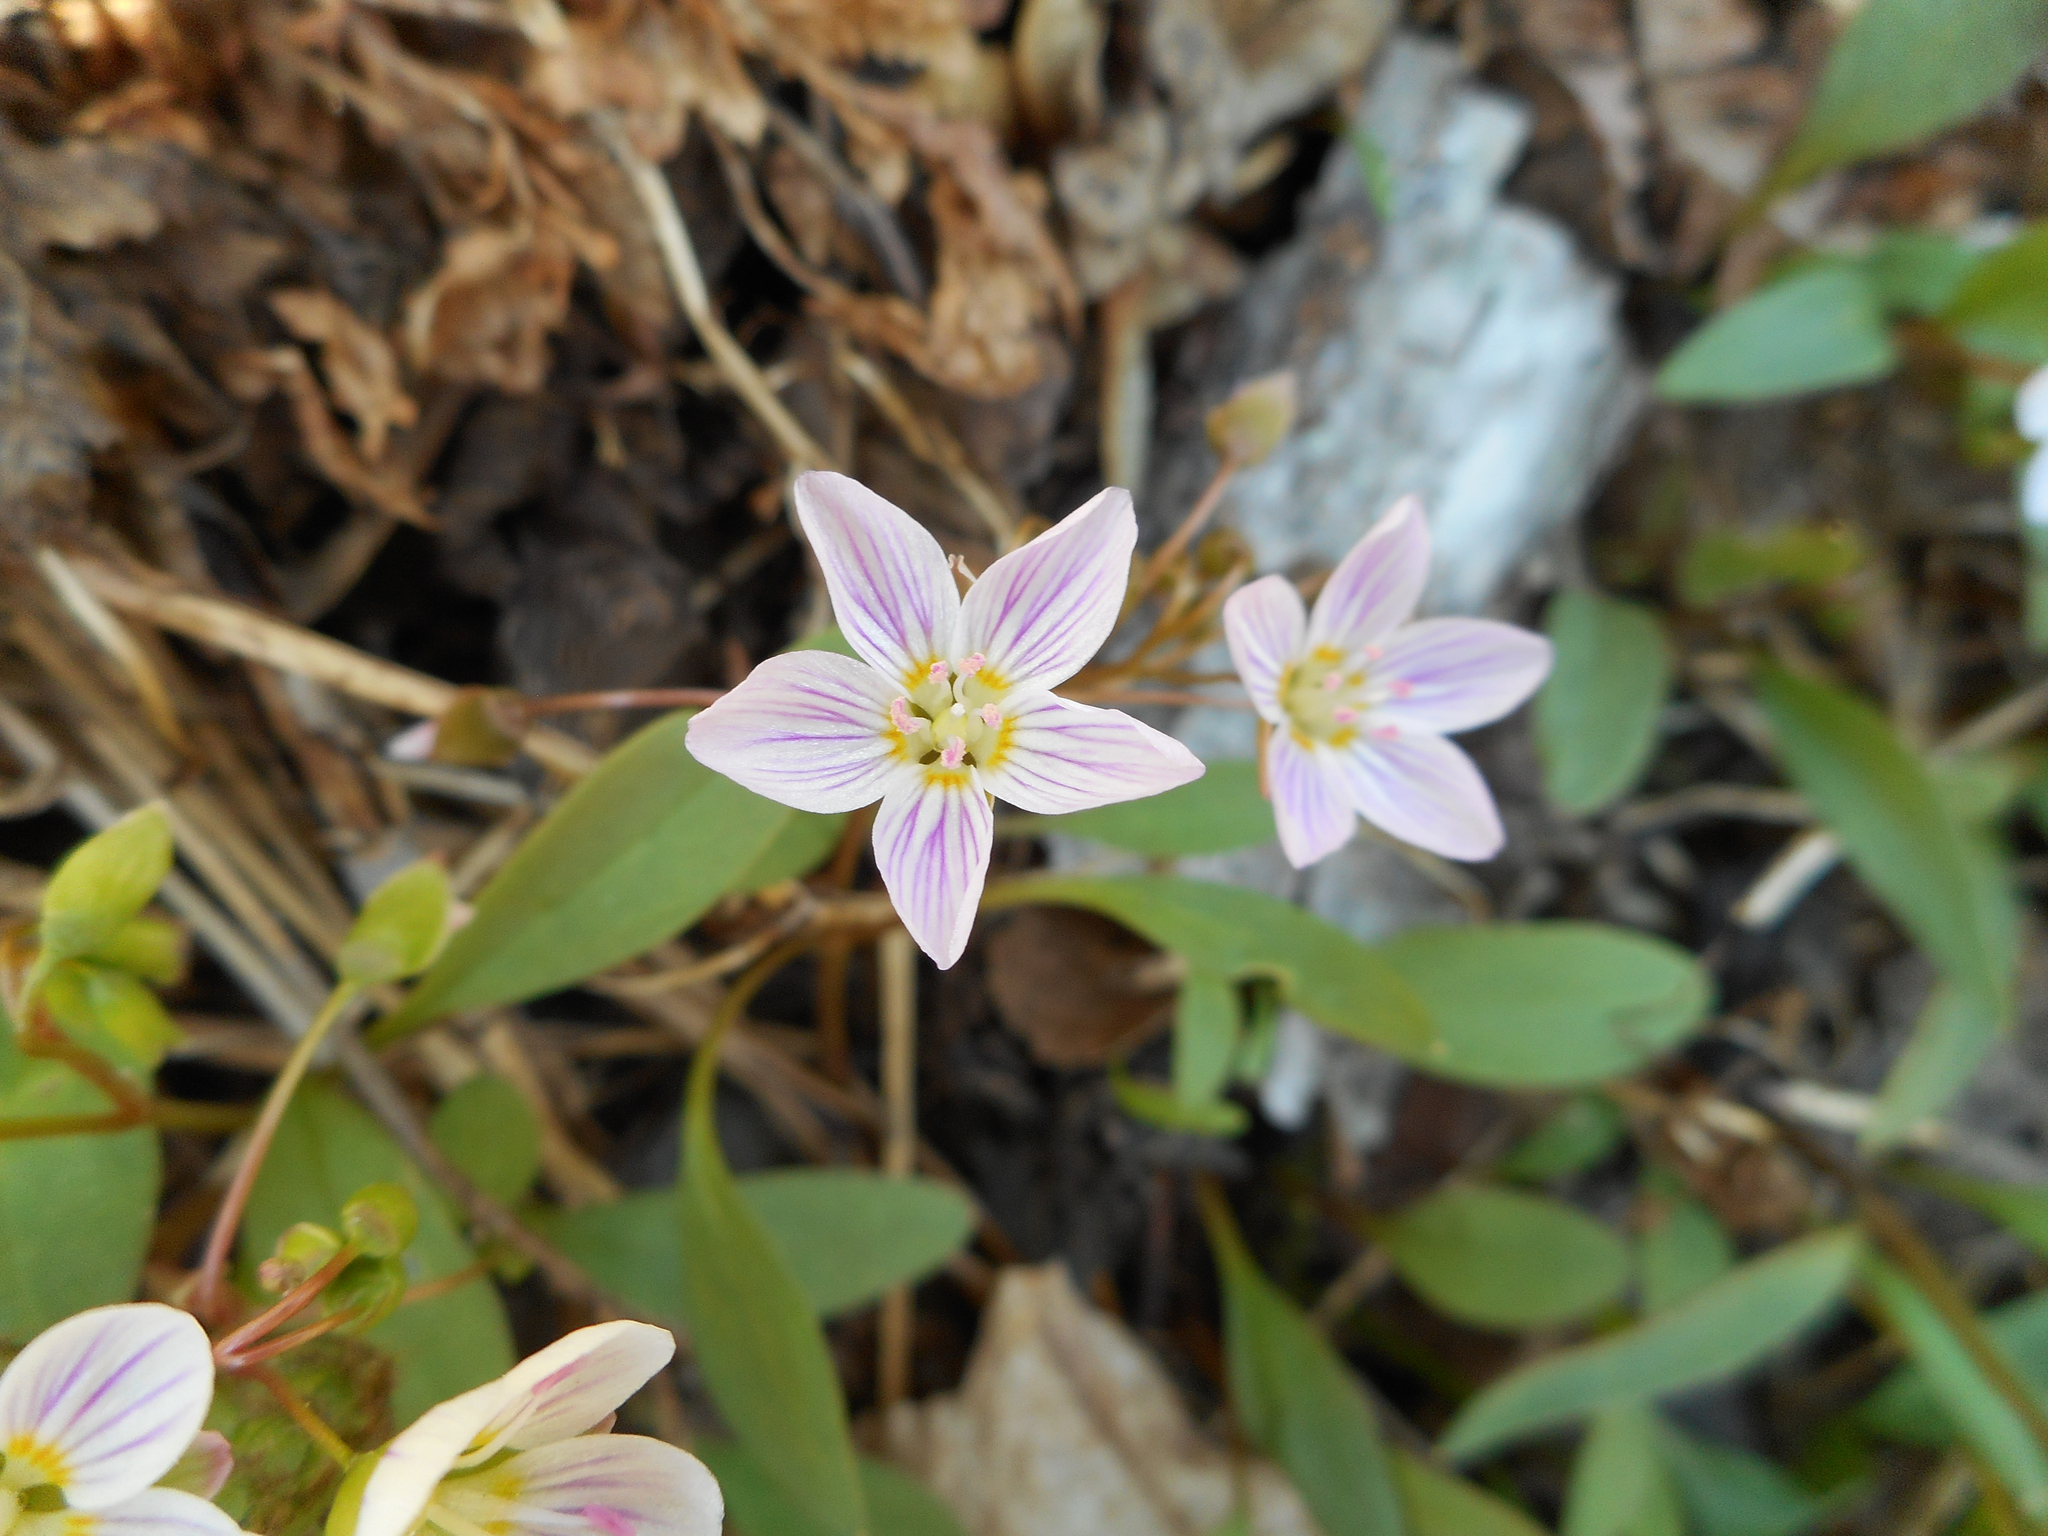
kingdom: Plantae
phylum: Tracheophyta
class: Magnoliopsida
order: Caryophyllales
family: Montiaceae
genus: Claytonia
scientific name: Claytonia caroliniana
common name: Carolina spring beauty
